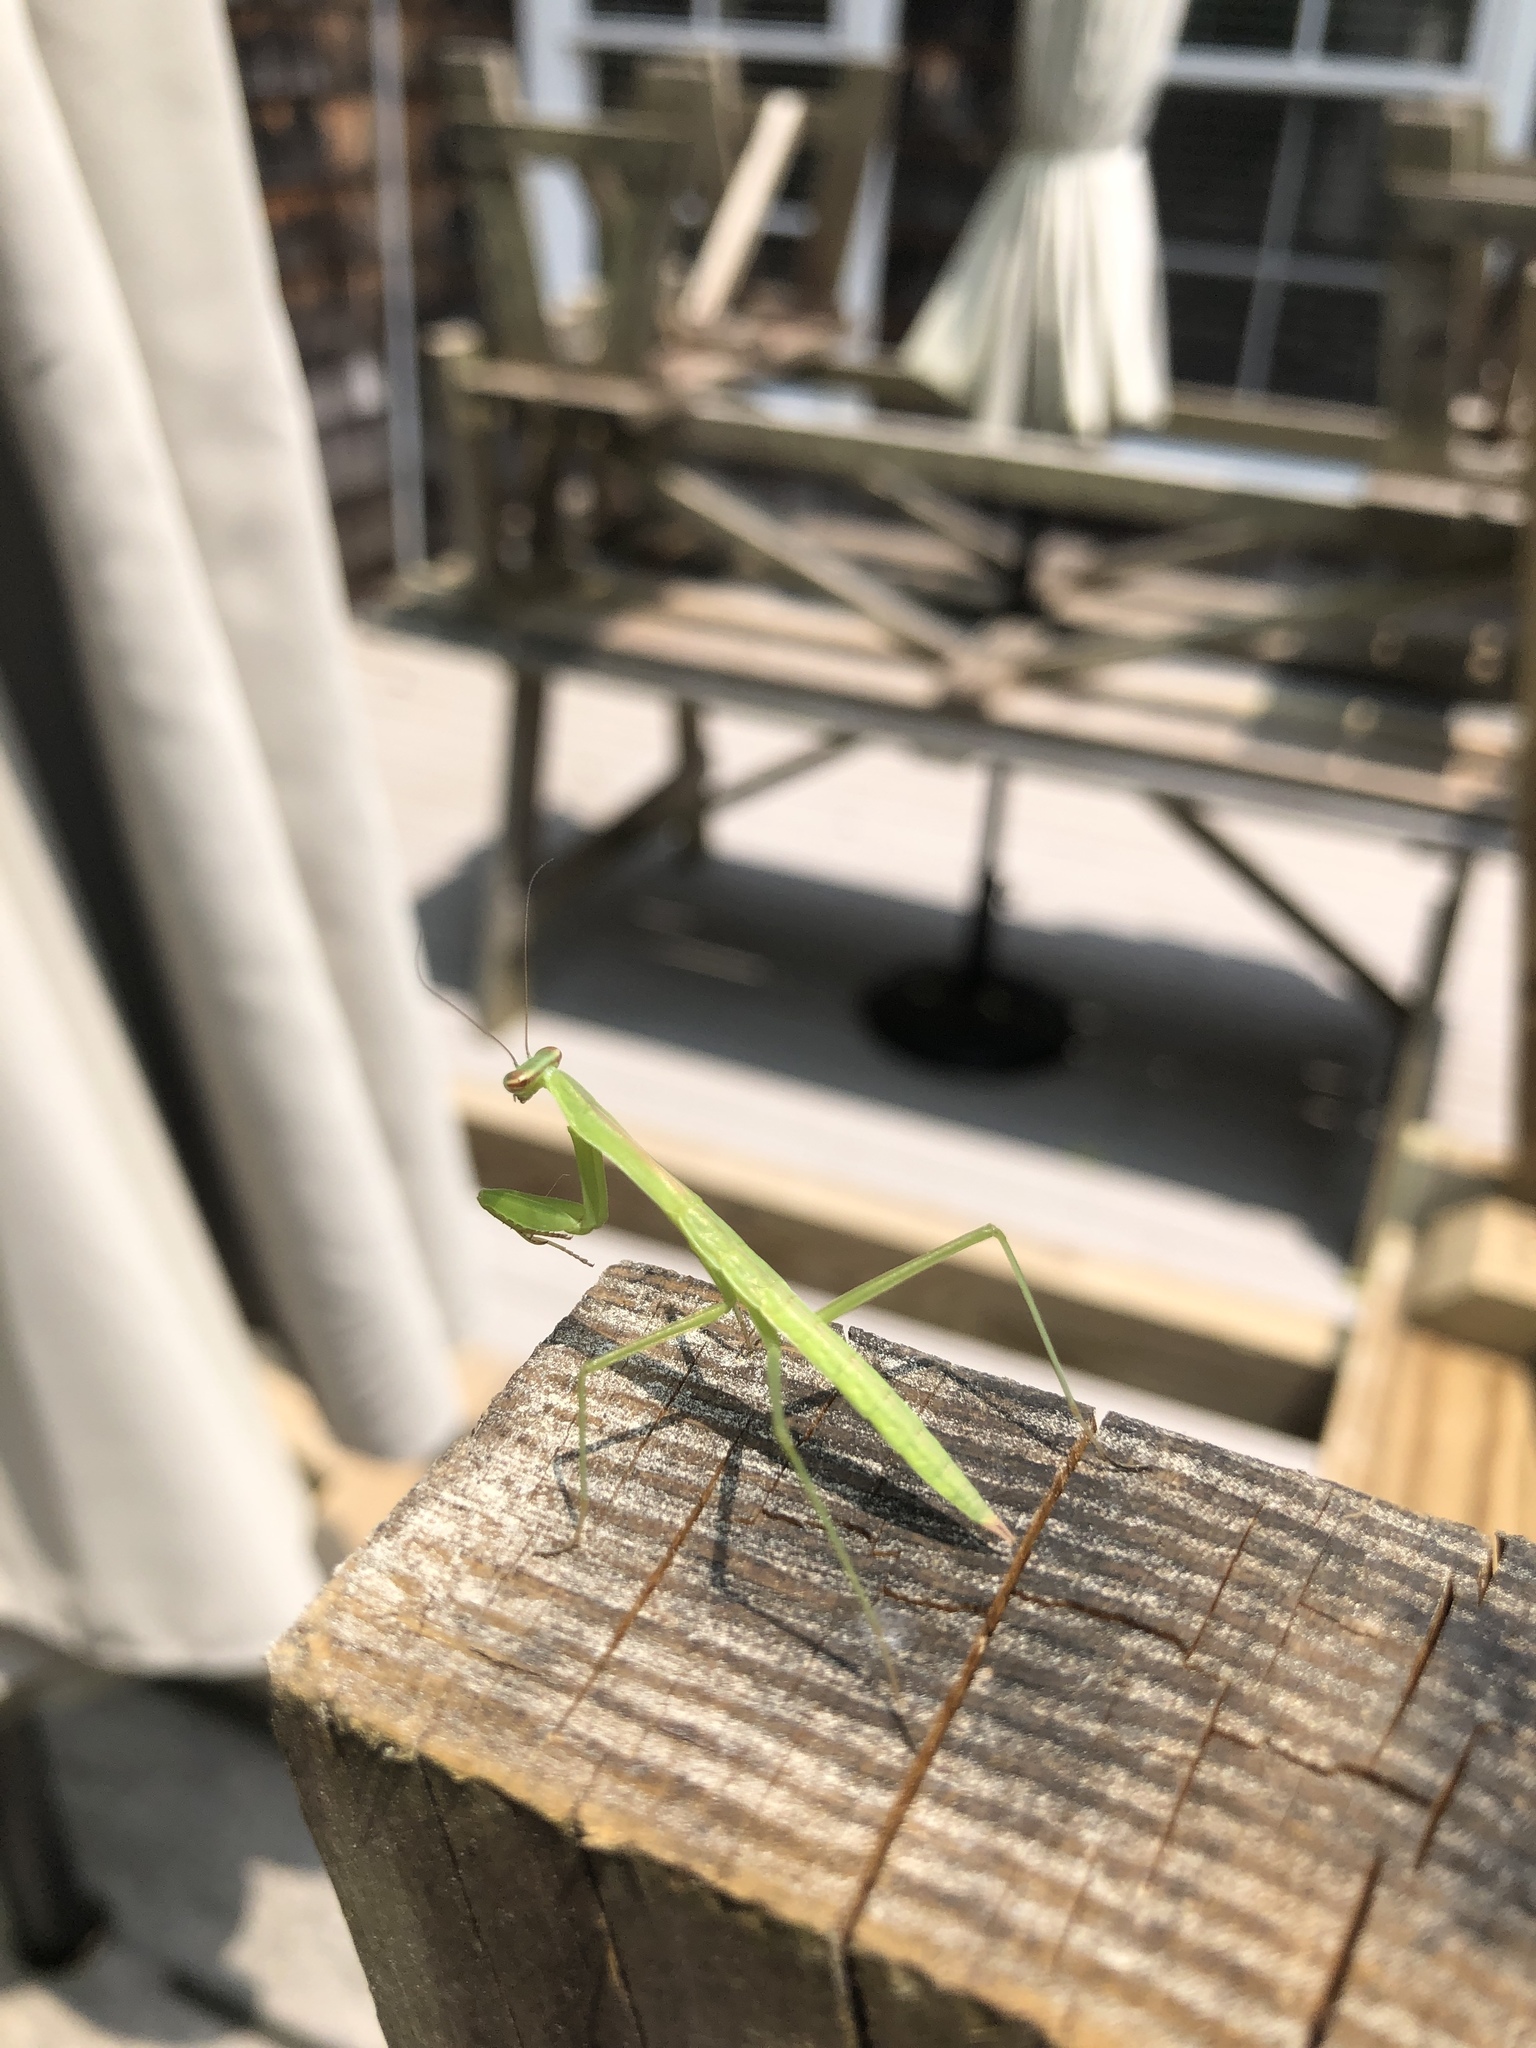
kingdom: Animalia
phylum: Arthropoda
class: Insecta
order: Mantodea
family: Mantidae
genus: Tenodera
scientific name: Tenodera sinensis
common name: Chinese mantis
